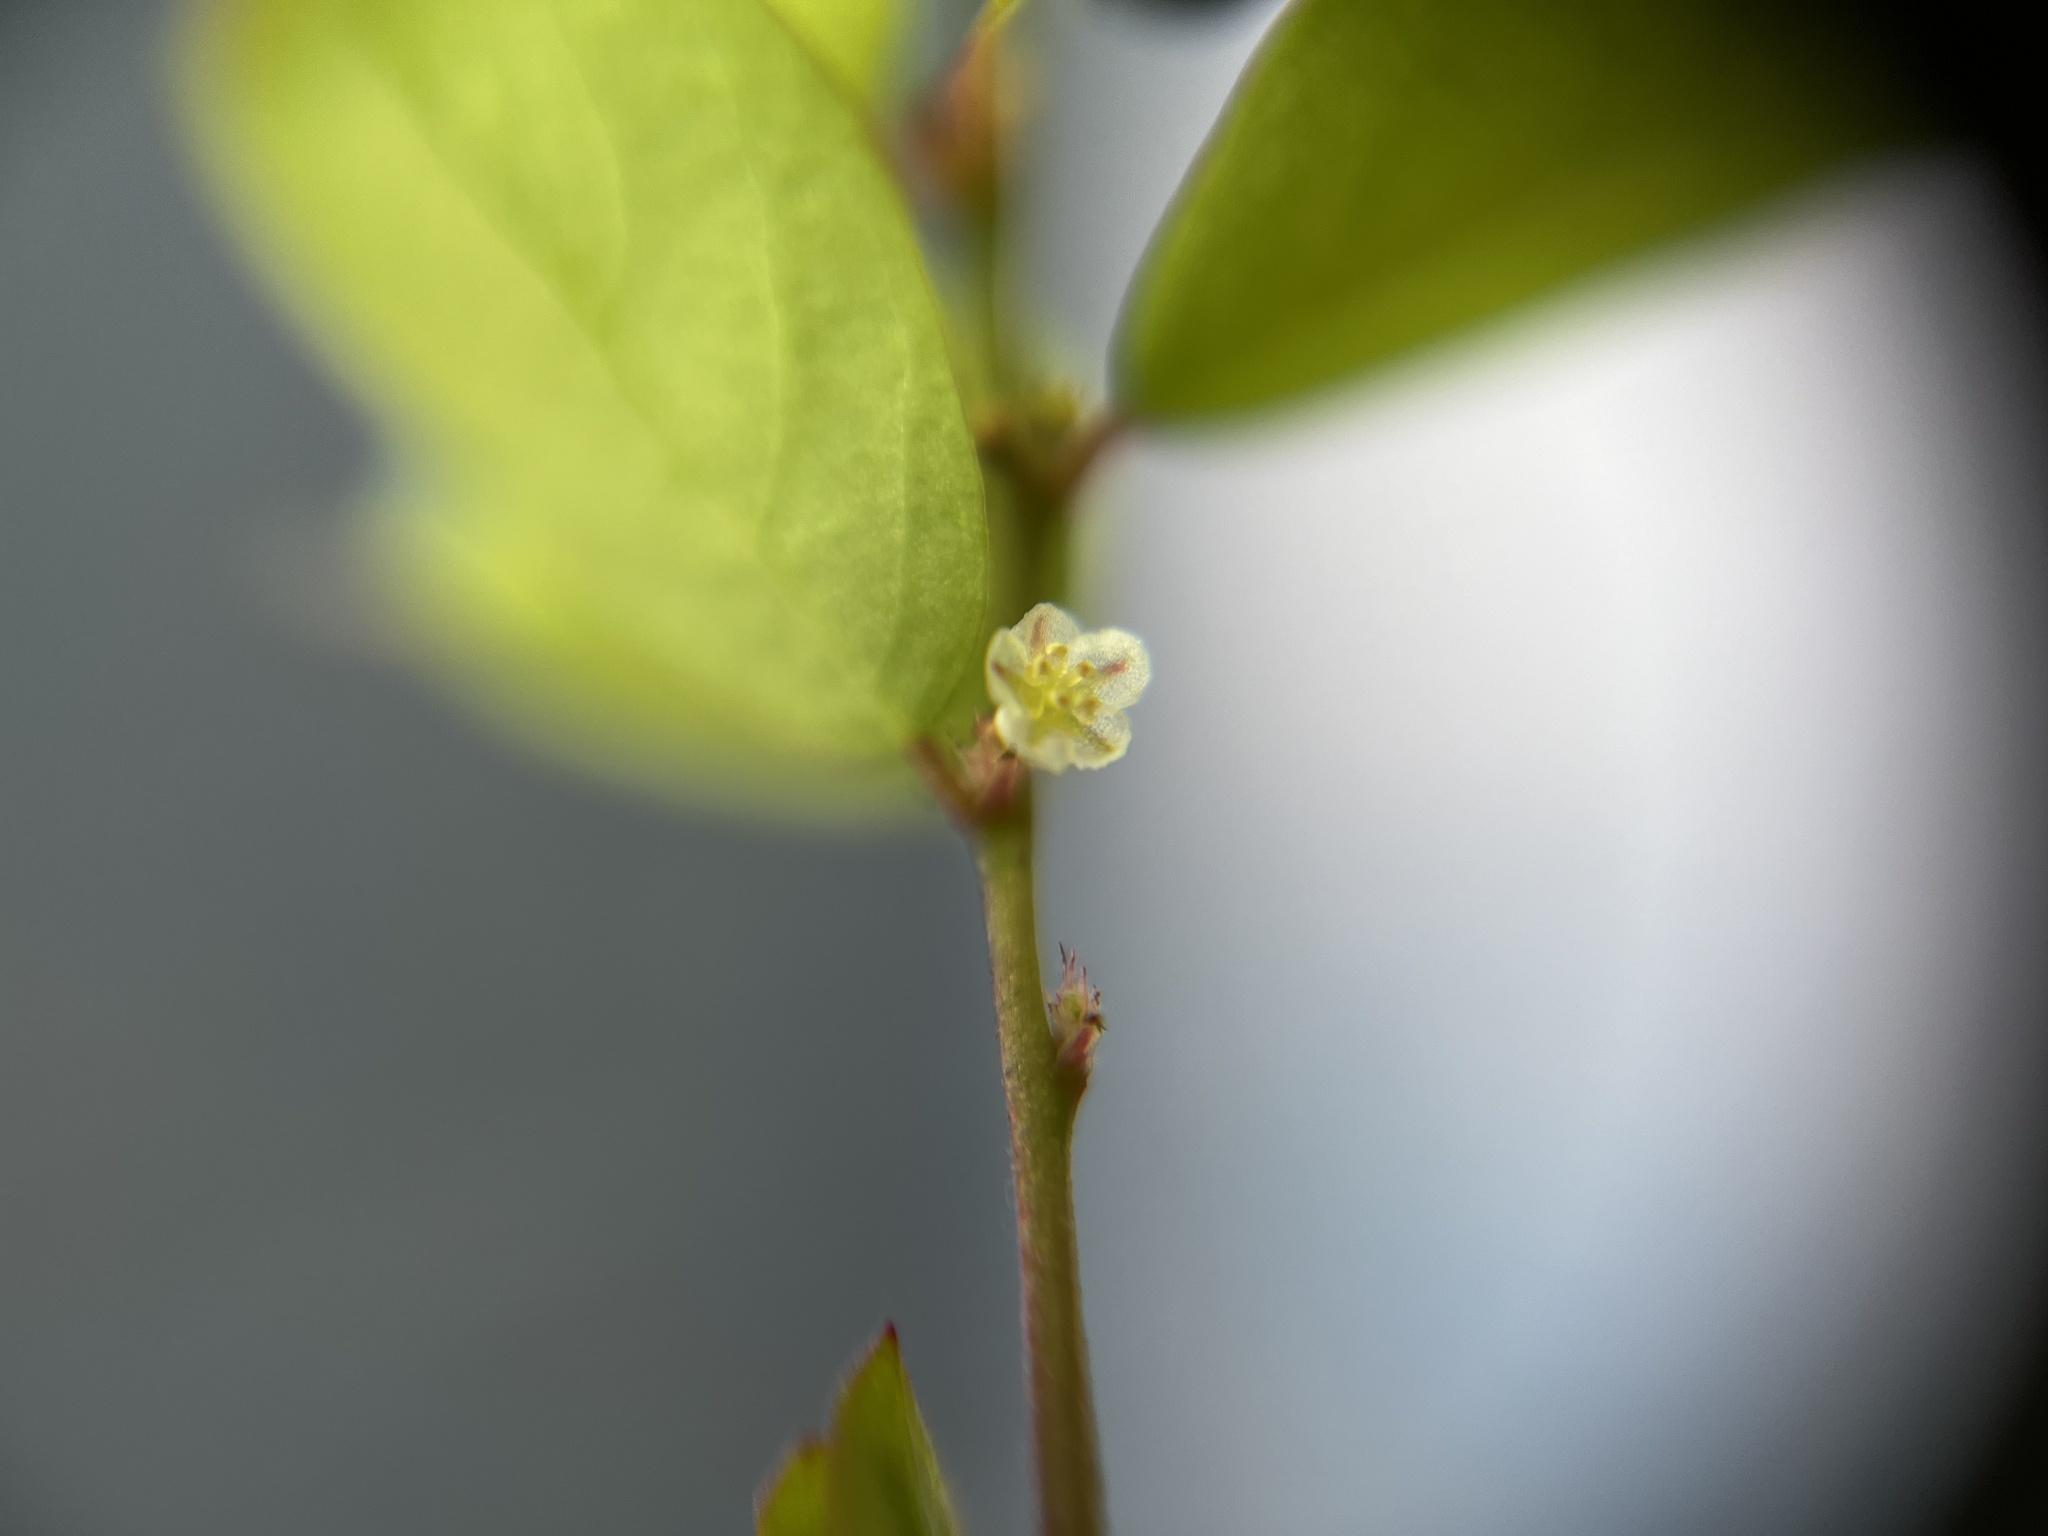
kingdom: Plantae
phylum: Tracheophyta
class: Magnoliopsida
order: Malpighiales
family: Phyllanthaceae
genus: Phyllanthus
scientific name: Phyllanthus tenellus
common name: Mascarene island leaf-flower
